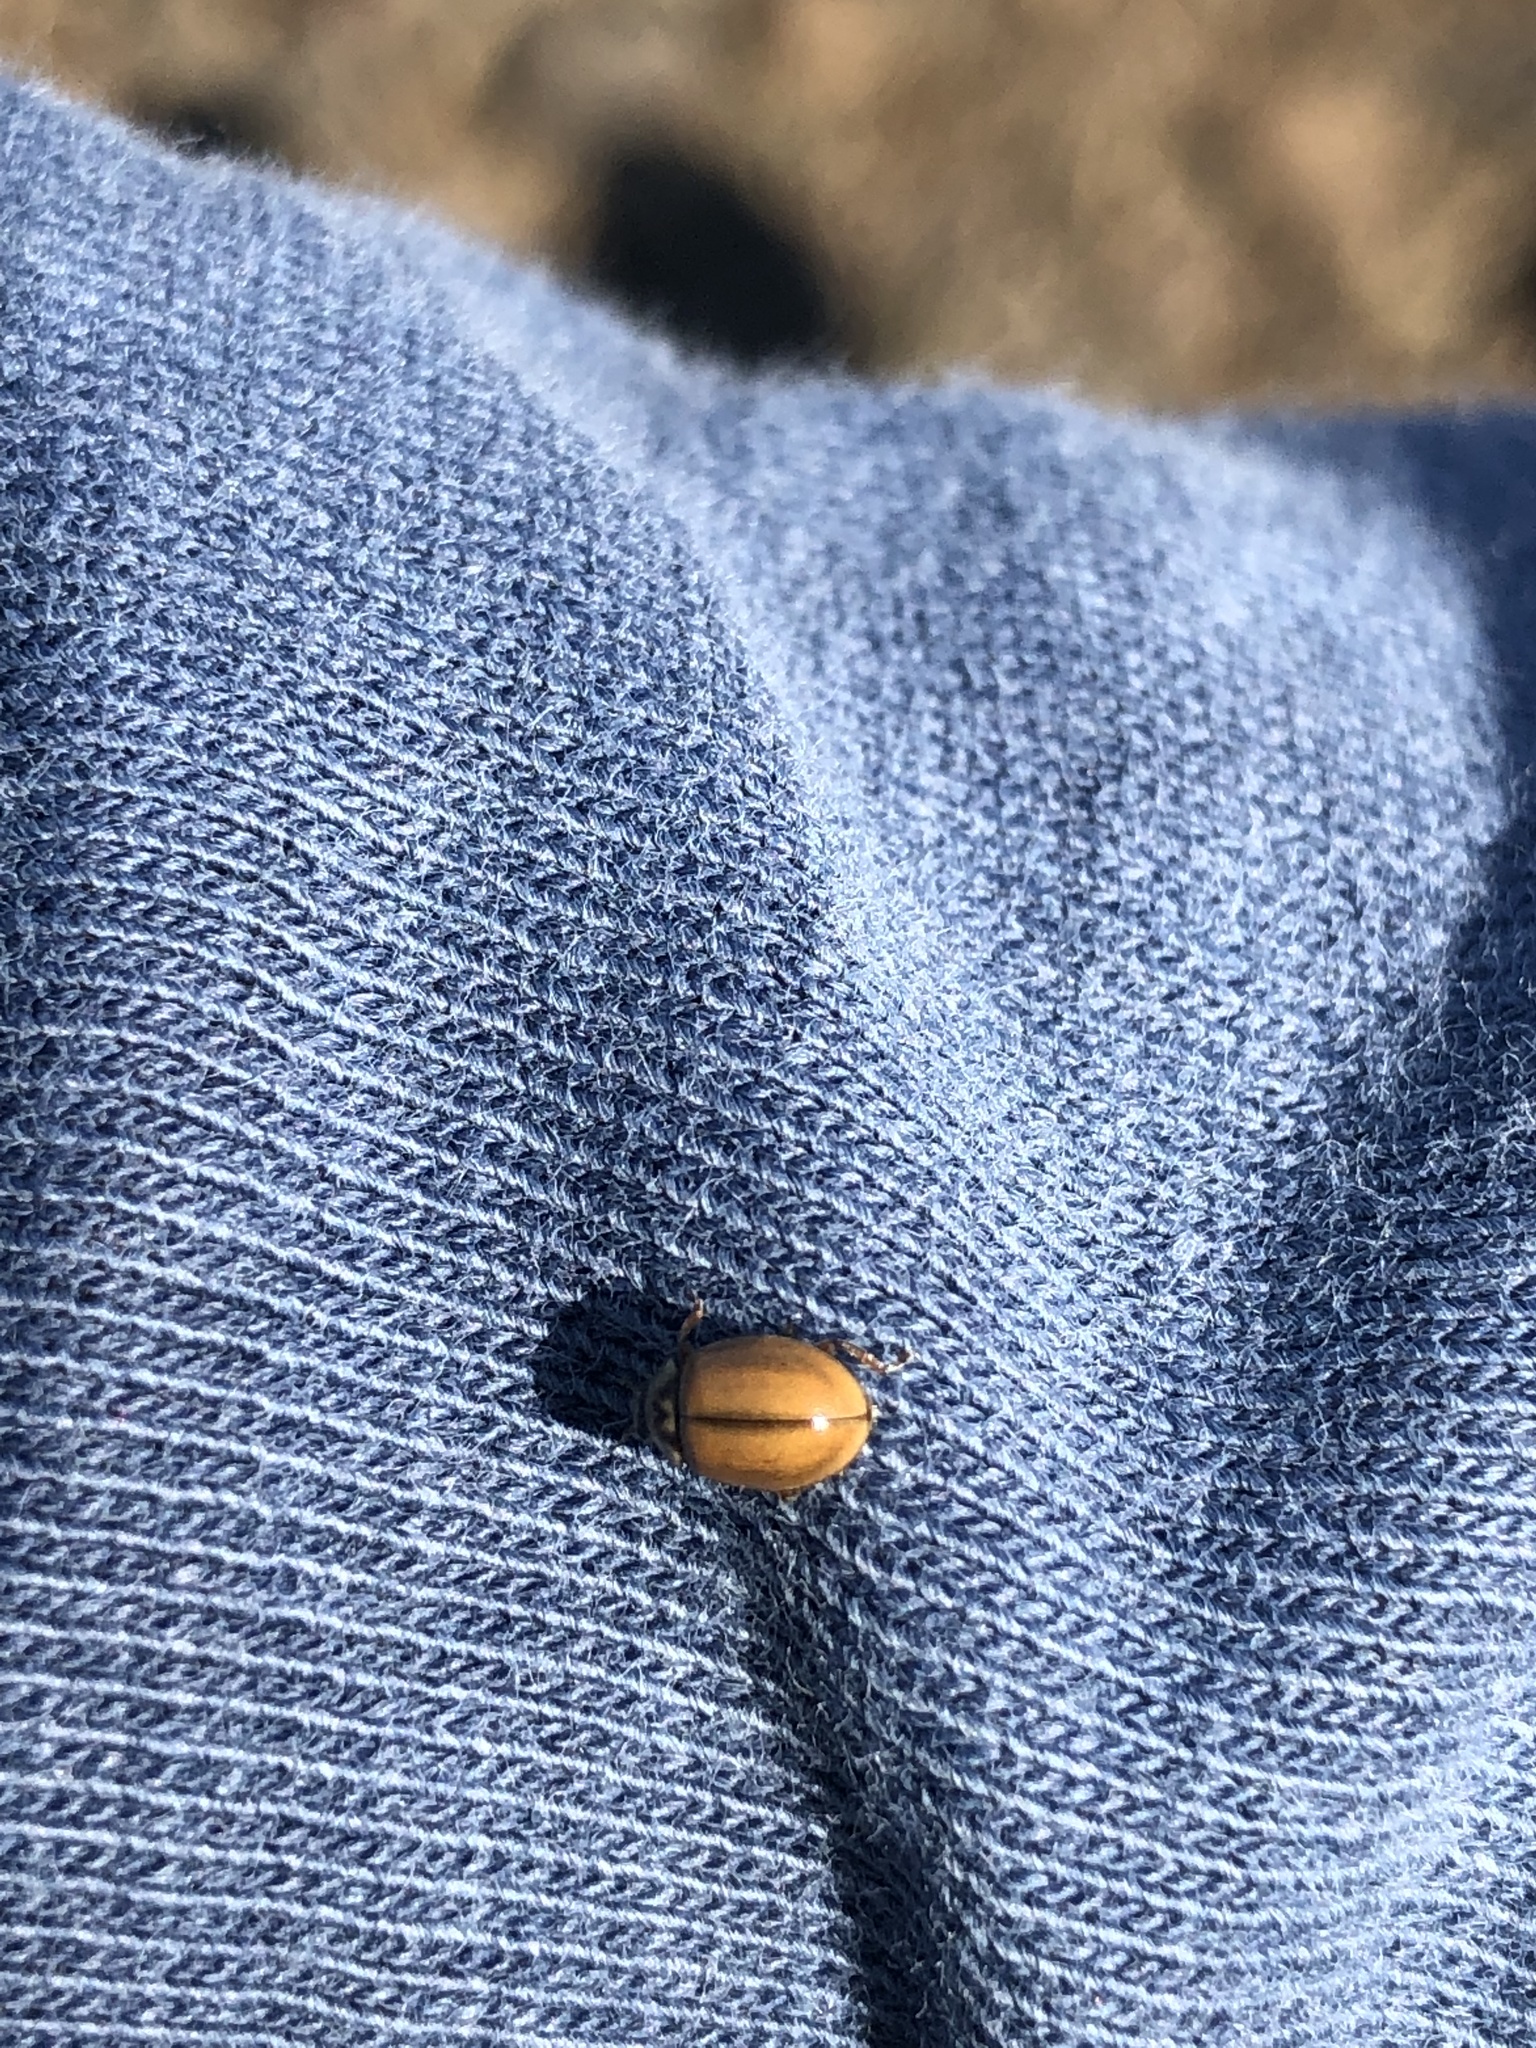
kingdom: Animalia
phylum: Arthropoda
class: Insecta
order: Coleoptera
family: Coccinellidae
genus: Aphidecta
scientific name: Aphidecta obliterata
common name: Larch ladybird
